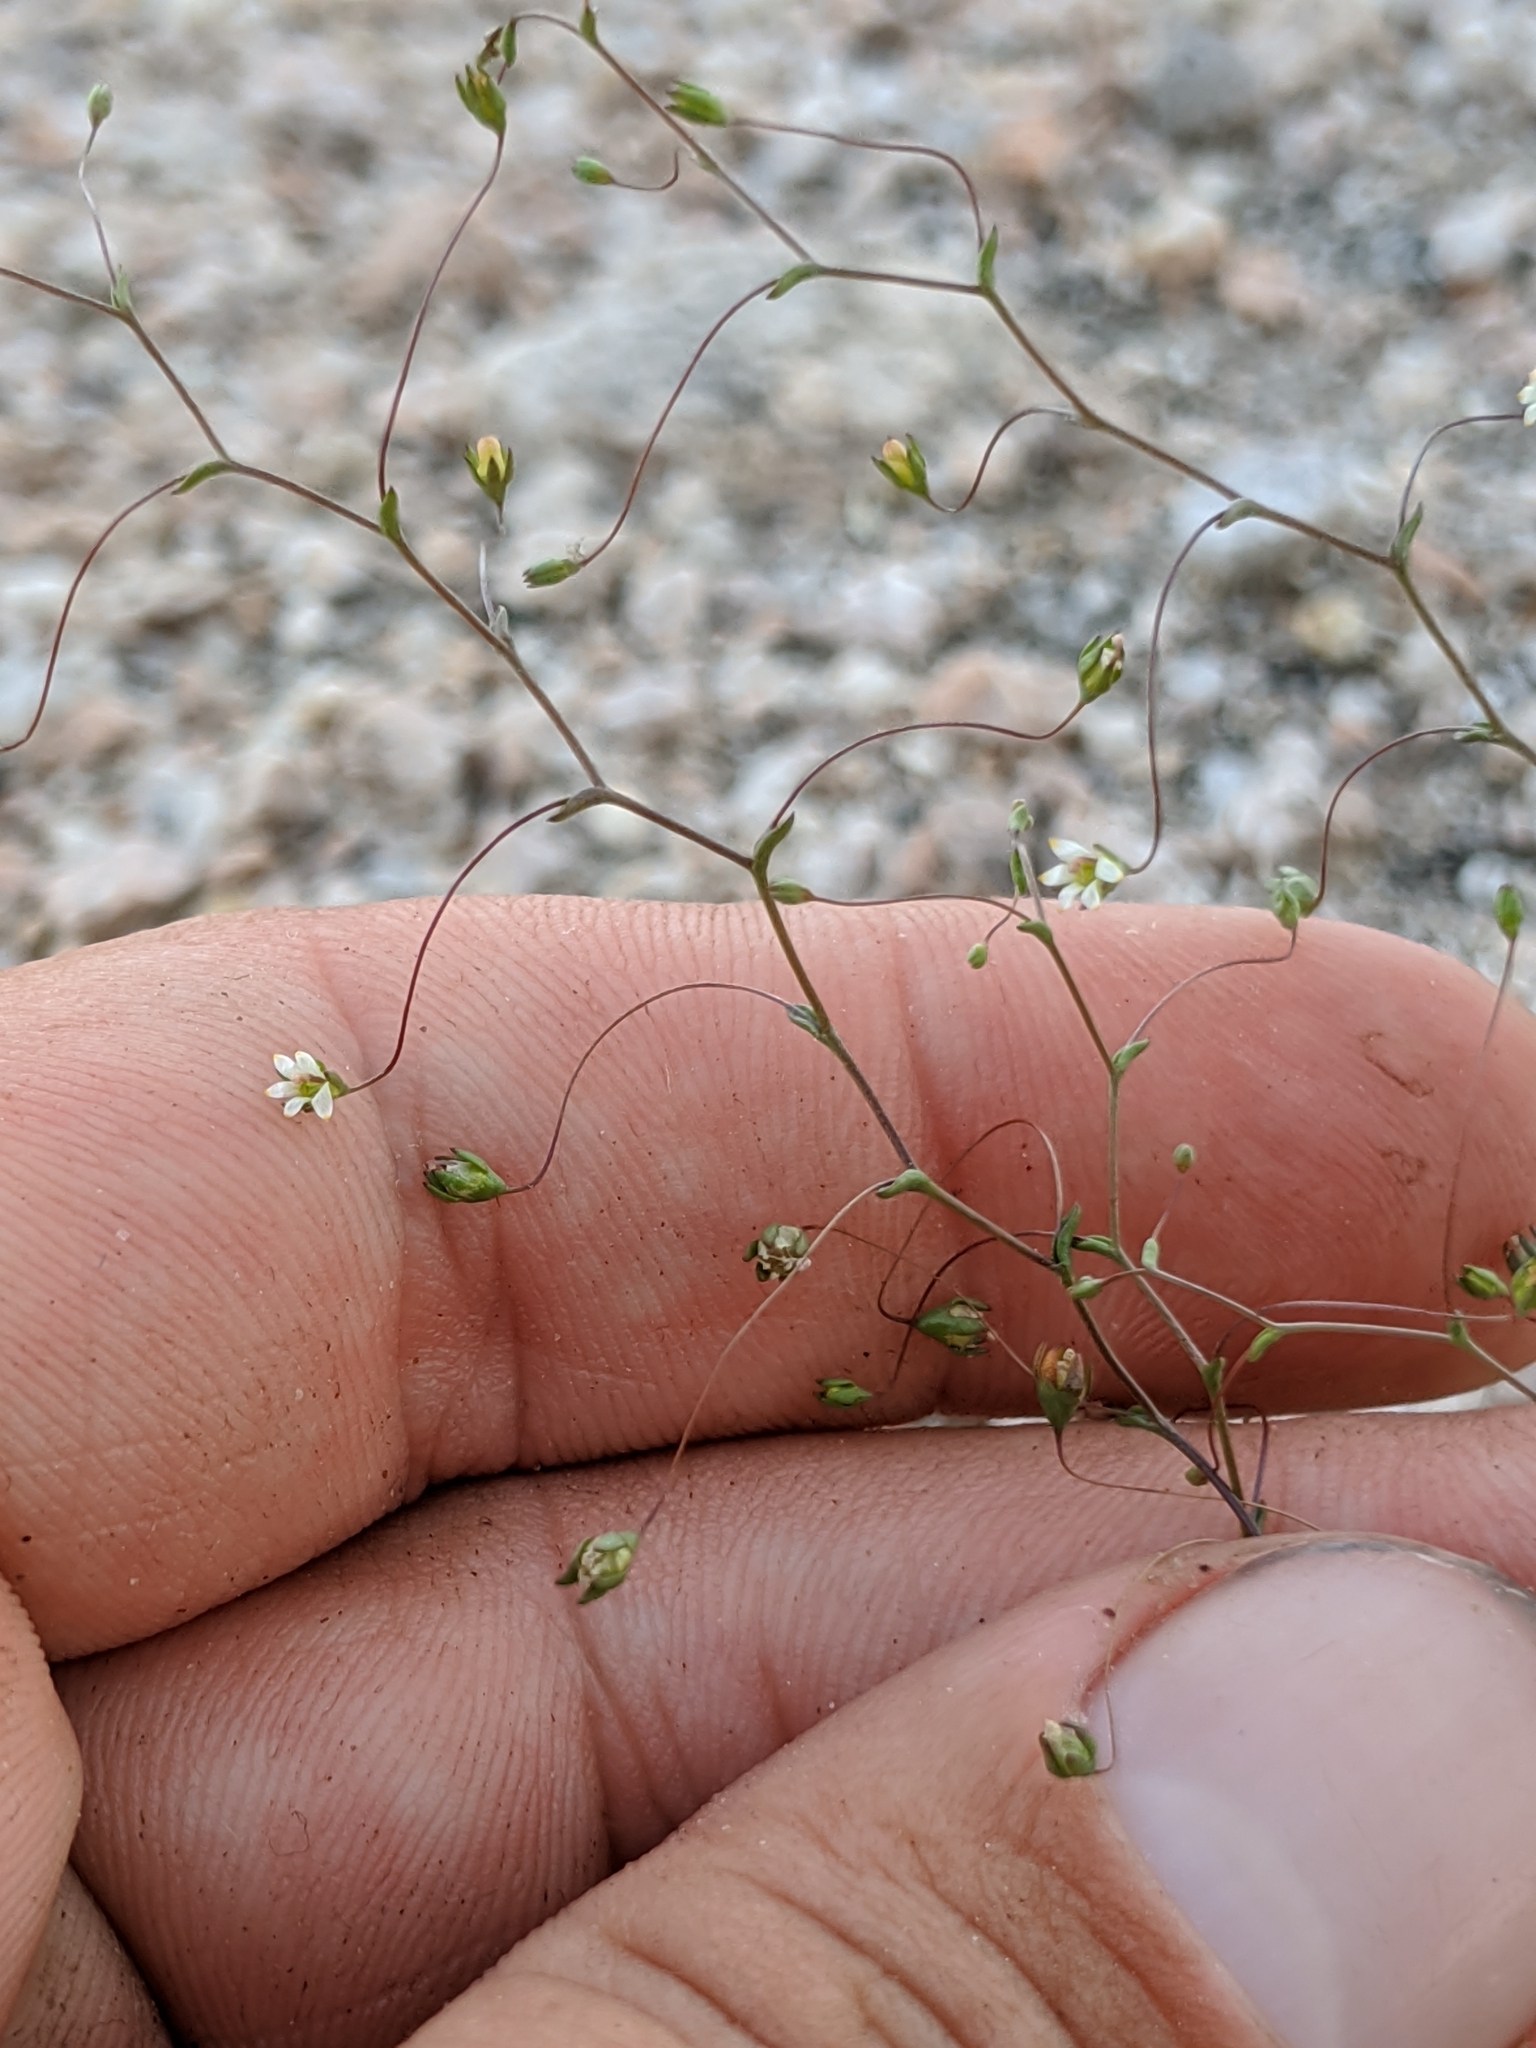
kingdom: Plantae
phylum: Tracheophyta
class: Magnoliopsida
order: Asterales
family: Campanulaceae
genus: Nemacladus
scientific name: Nemacladus eastwoodiae
